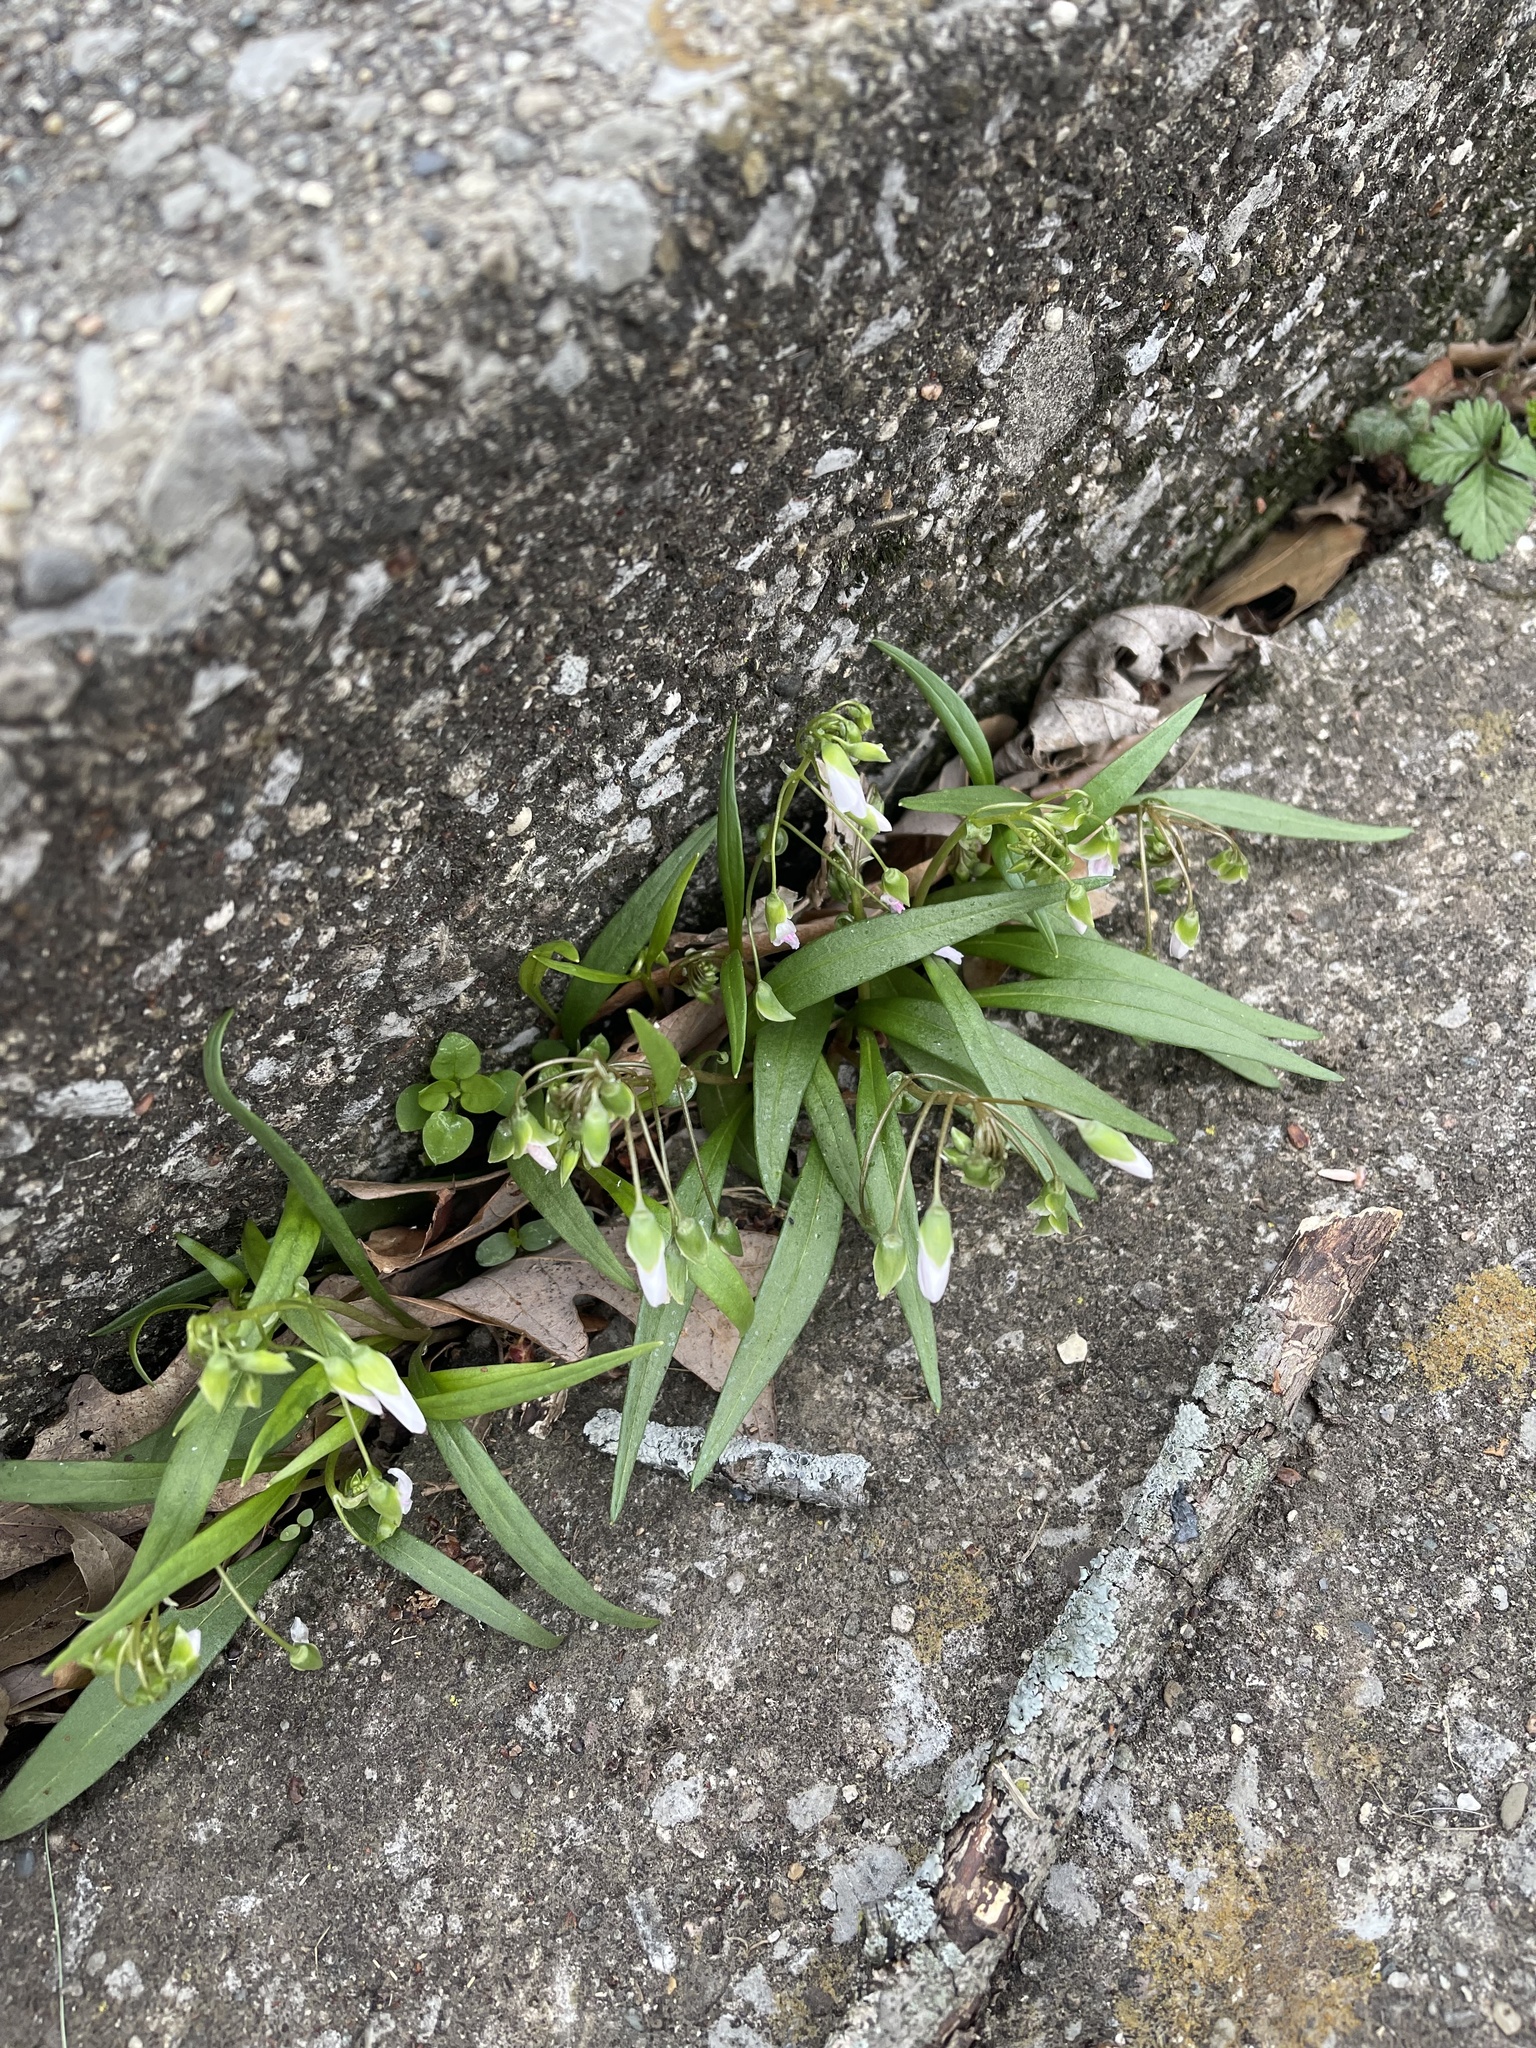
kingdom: Plantae
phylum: Tracheophyta
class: Magnoliopsida
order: Caryophyllales
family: Montiaceae
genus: Claytonia
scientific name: Claytonia virginica
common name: Virginia springbeauty
